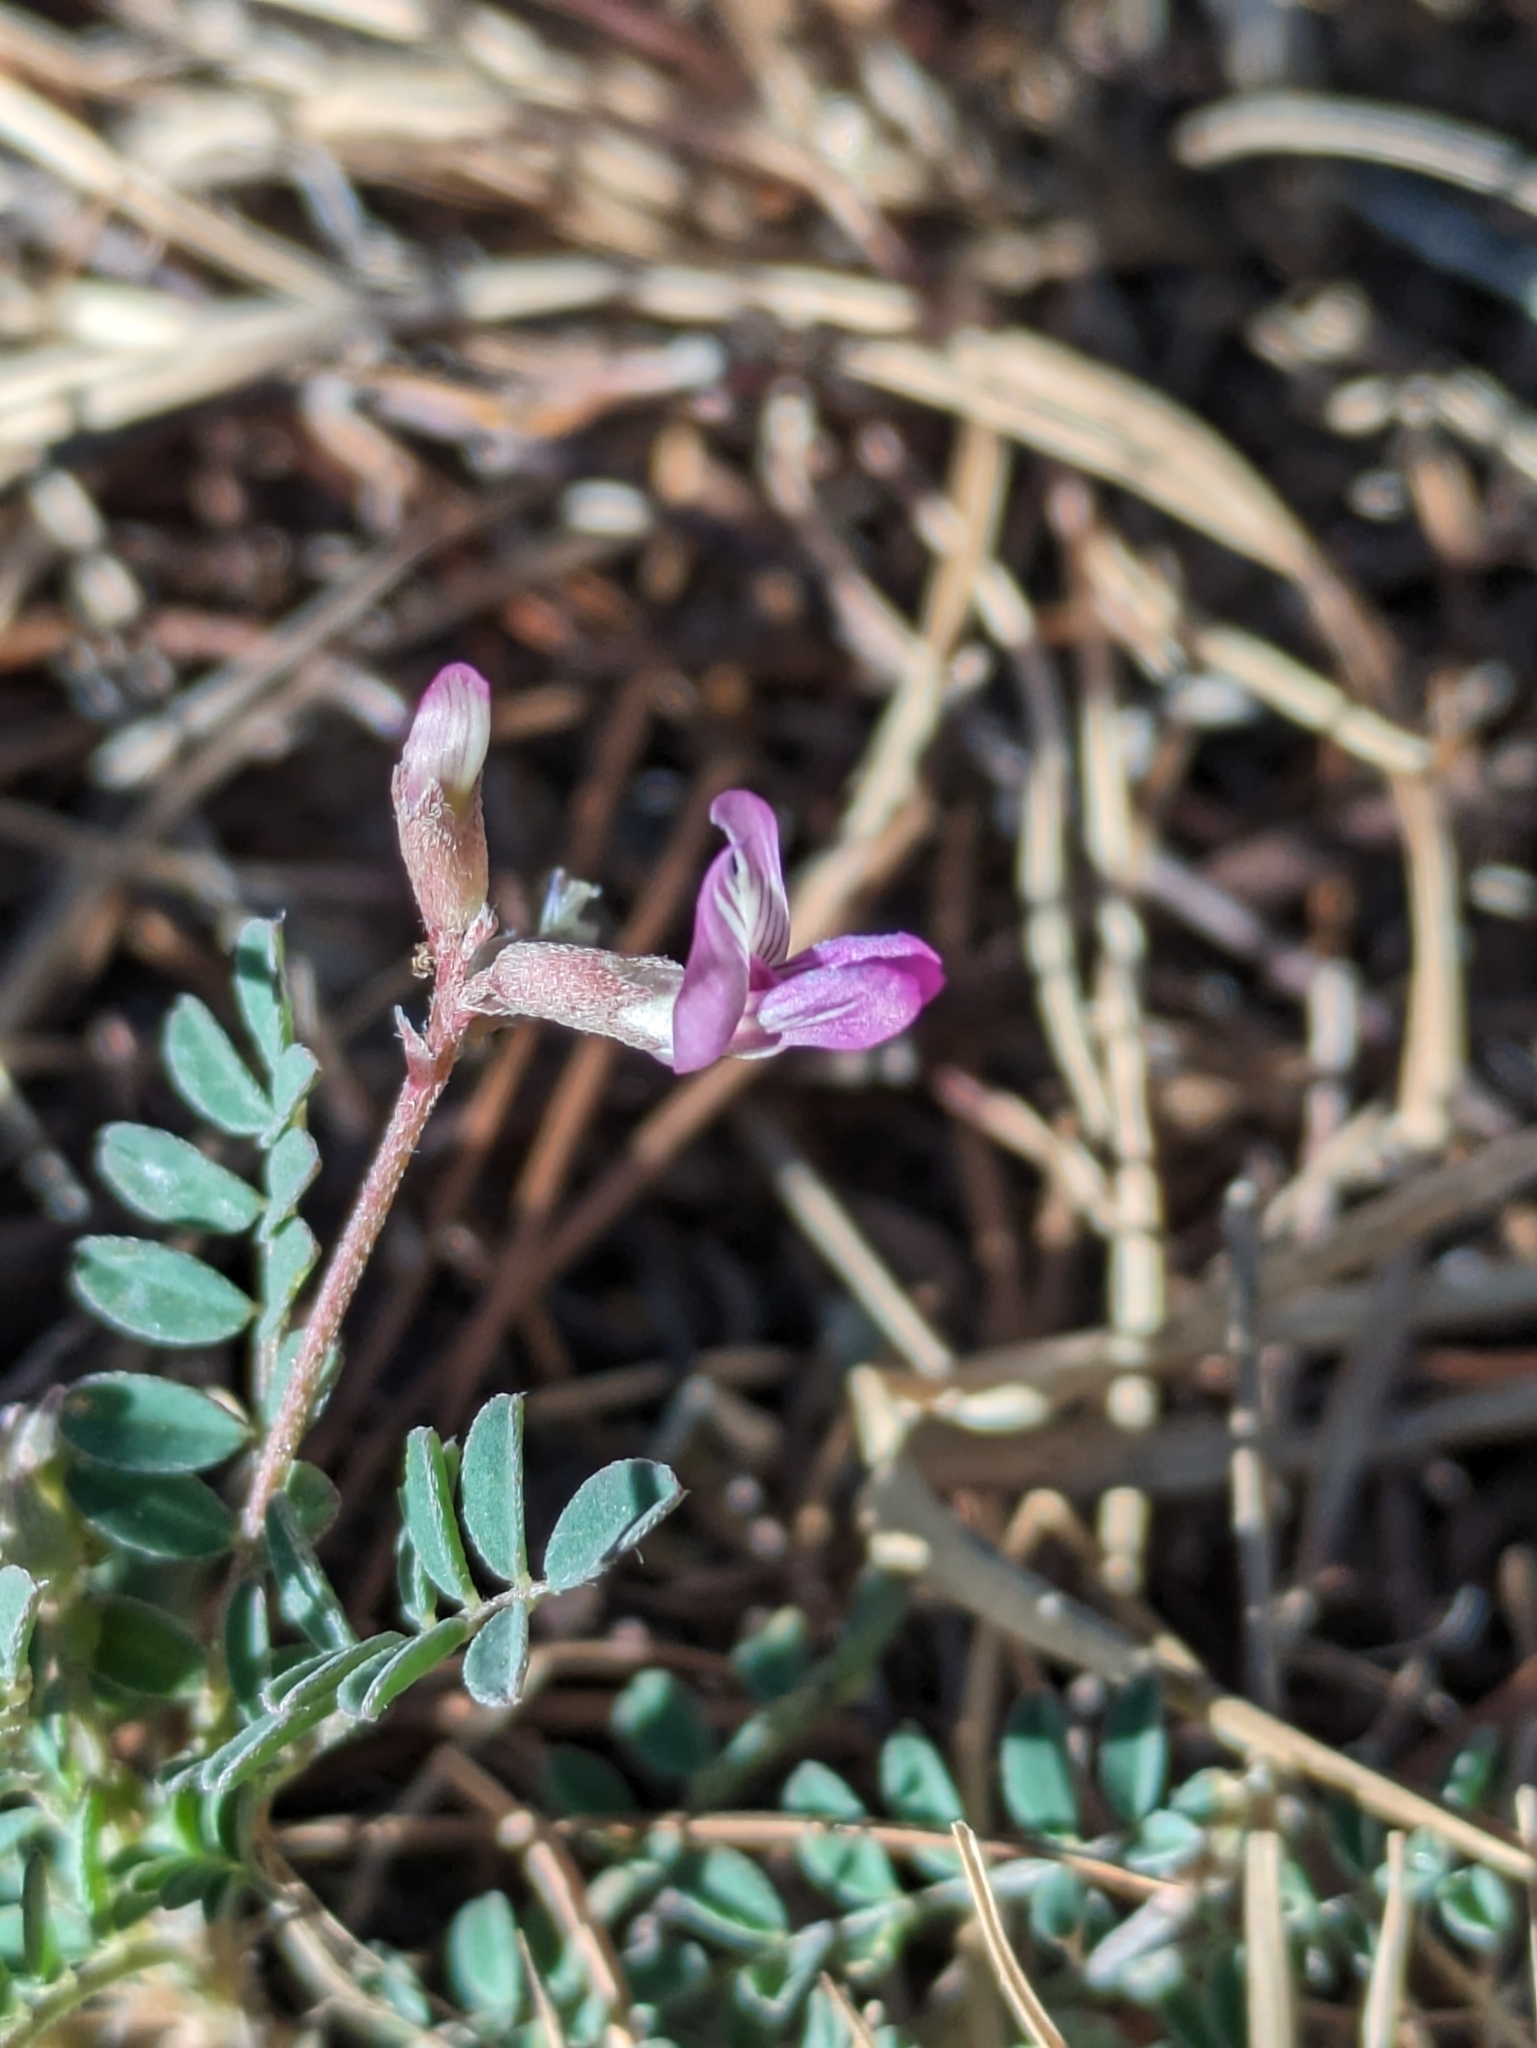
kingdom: Plantae
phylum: Tracheophyta
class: Magnoliopsida
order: Fabales
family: Fabaceae
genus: Astragalus
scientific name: Astragalus francisquitensis
